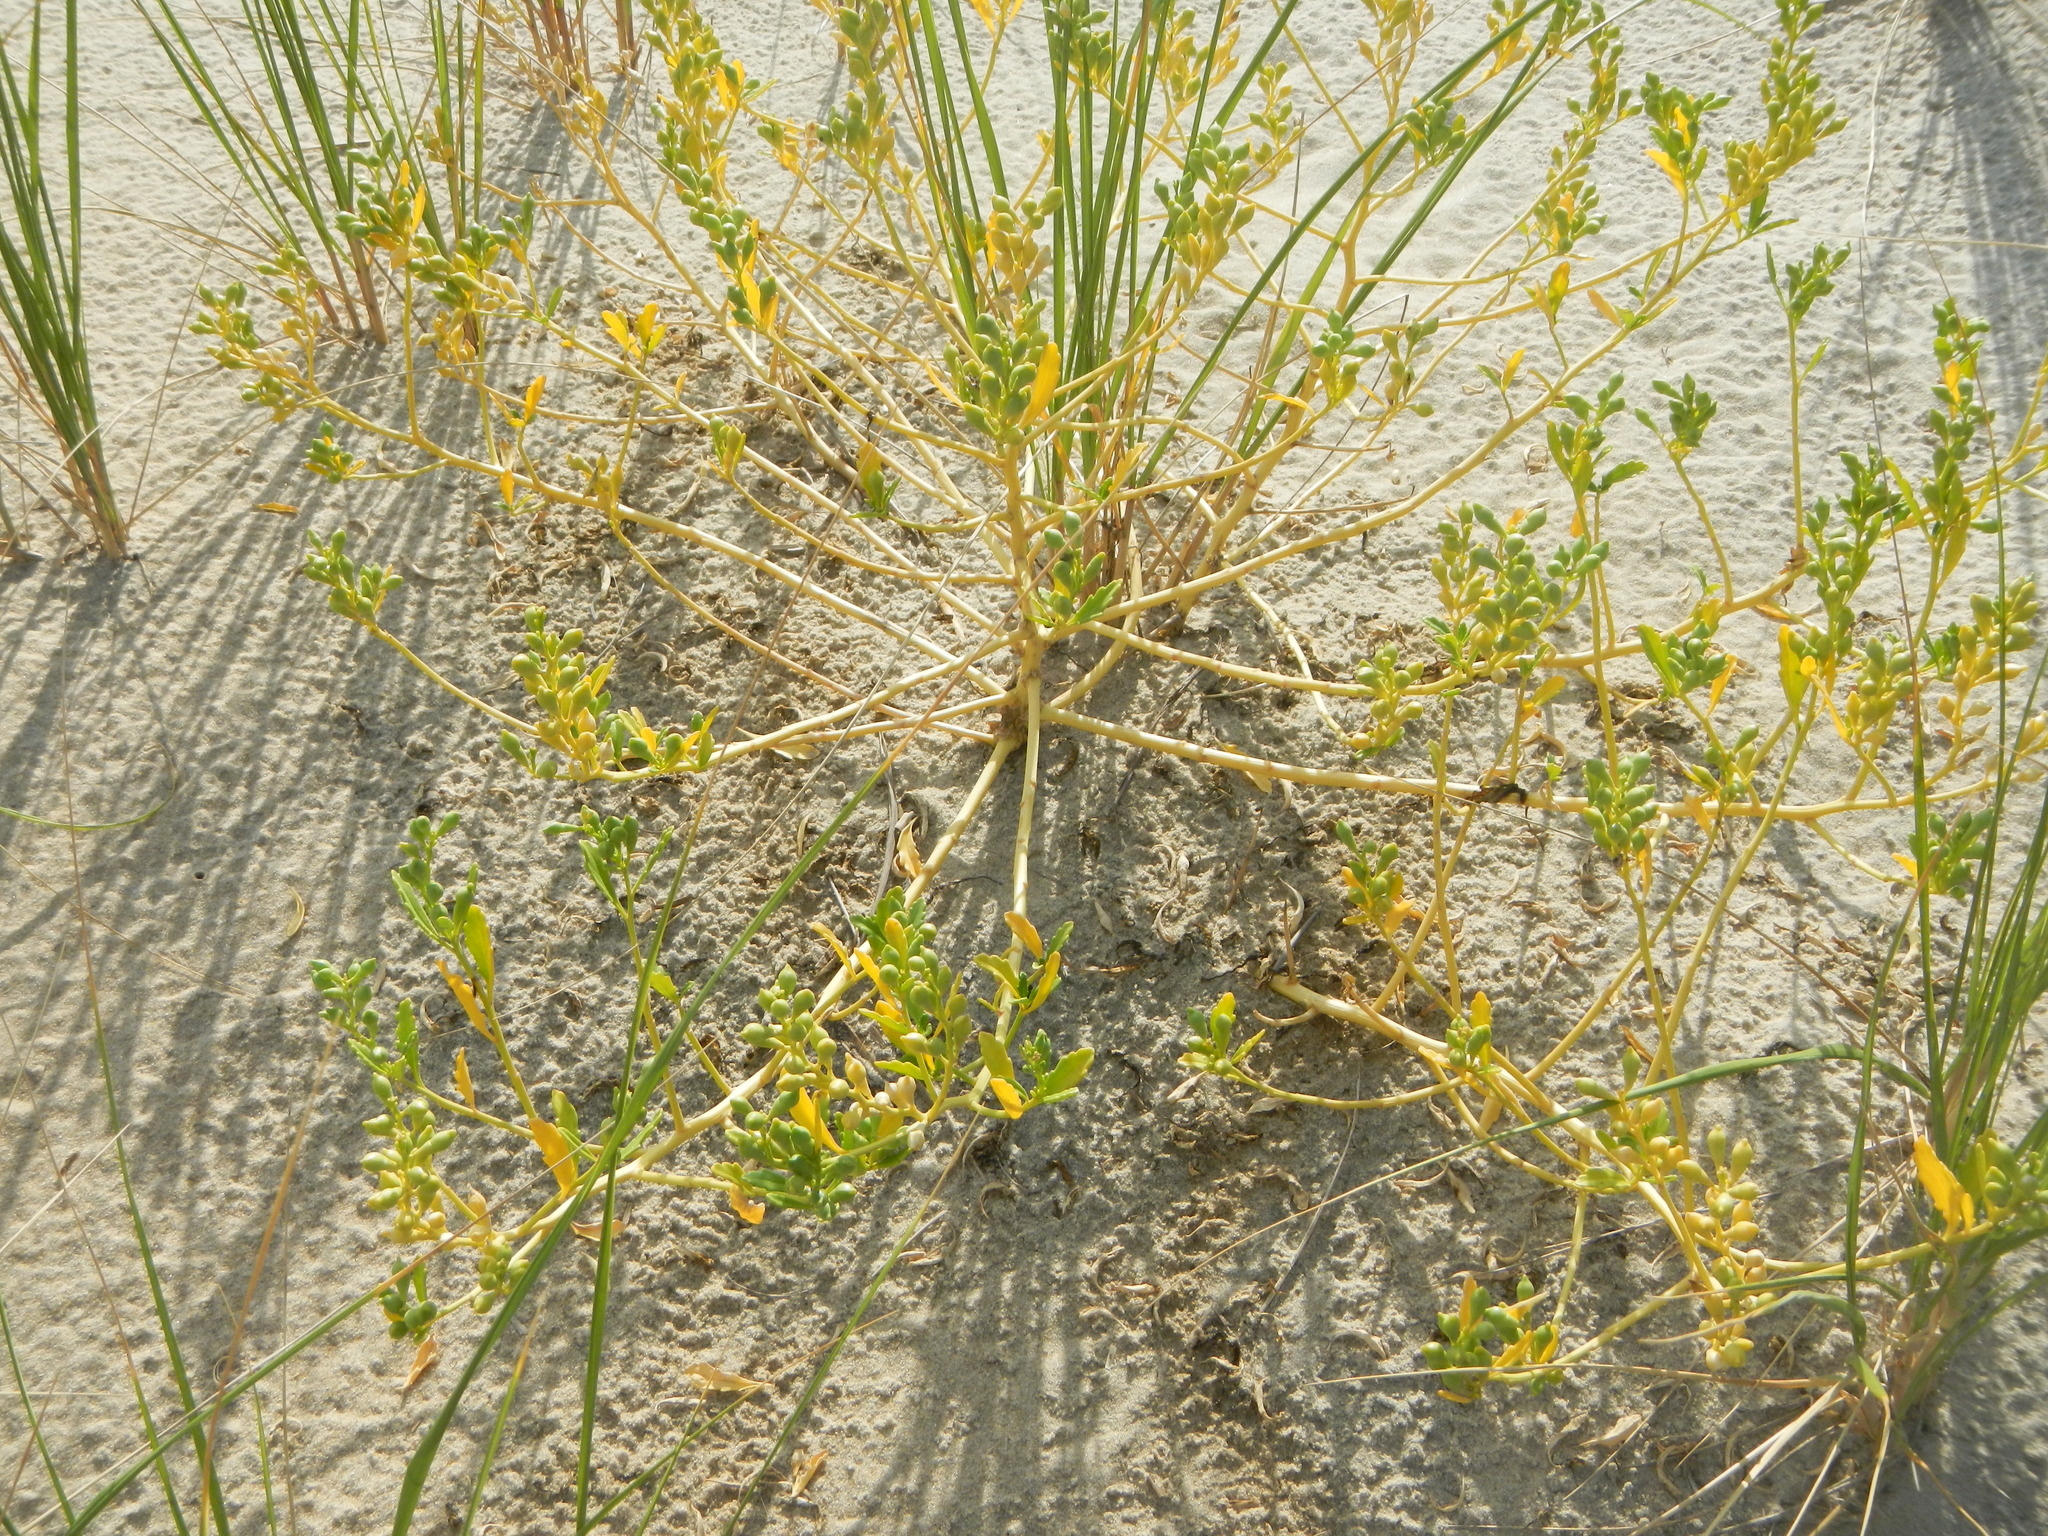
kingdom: Plantae
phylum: Tracheophyta
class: Magnoliopsida
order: Brassicales
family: Brassicaceae
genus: Cakile
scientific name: Cakile edentula
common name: American sea rocket
